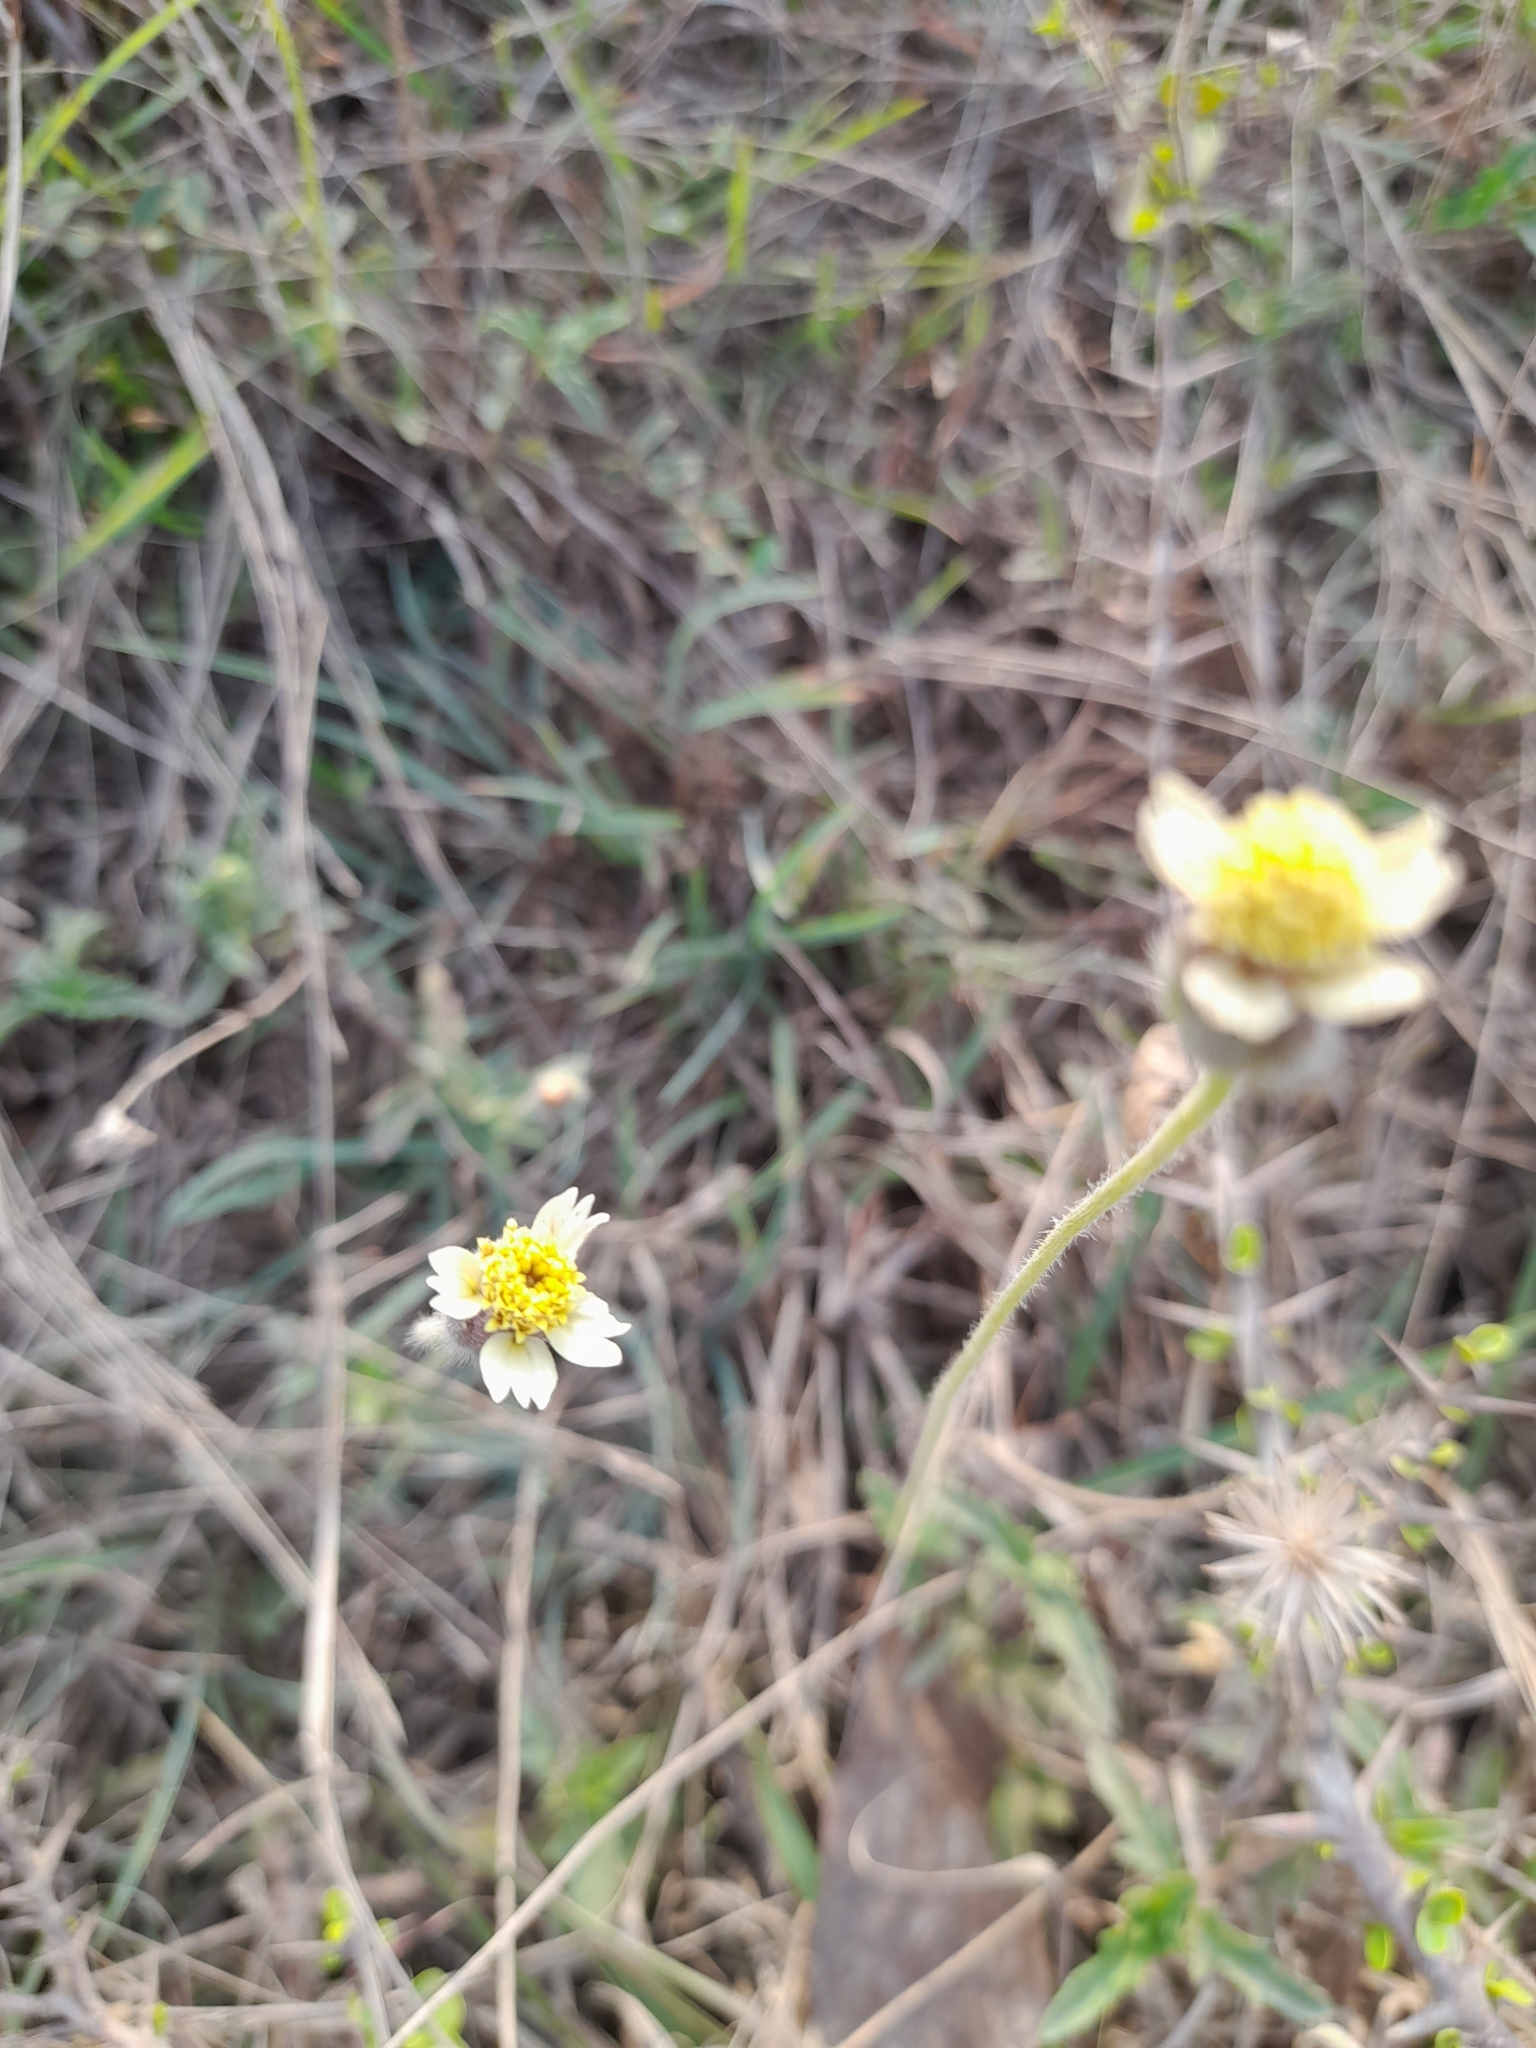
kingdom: Plantae
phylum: Tracheophyta
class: Magnoliopsida
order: Asterales
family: Asteraceae
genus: Tridax
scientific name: Tridax procumbens
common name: Coatbuttons
